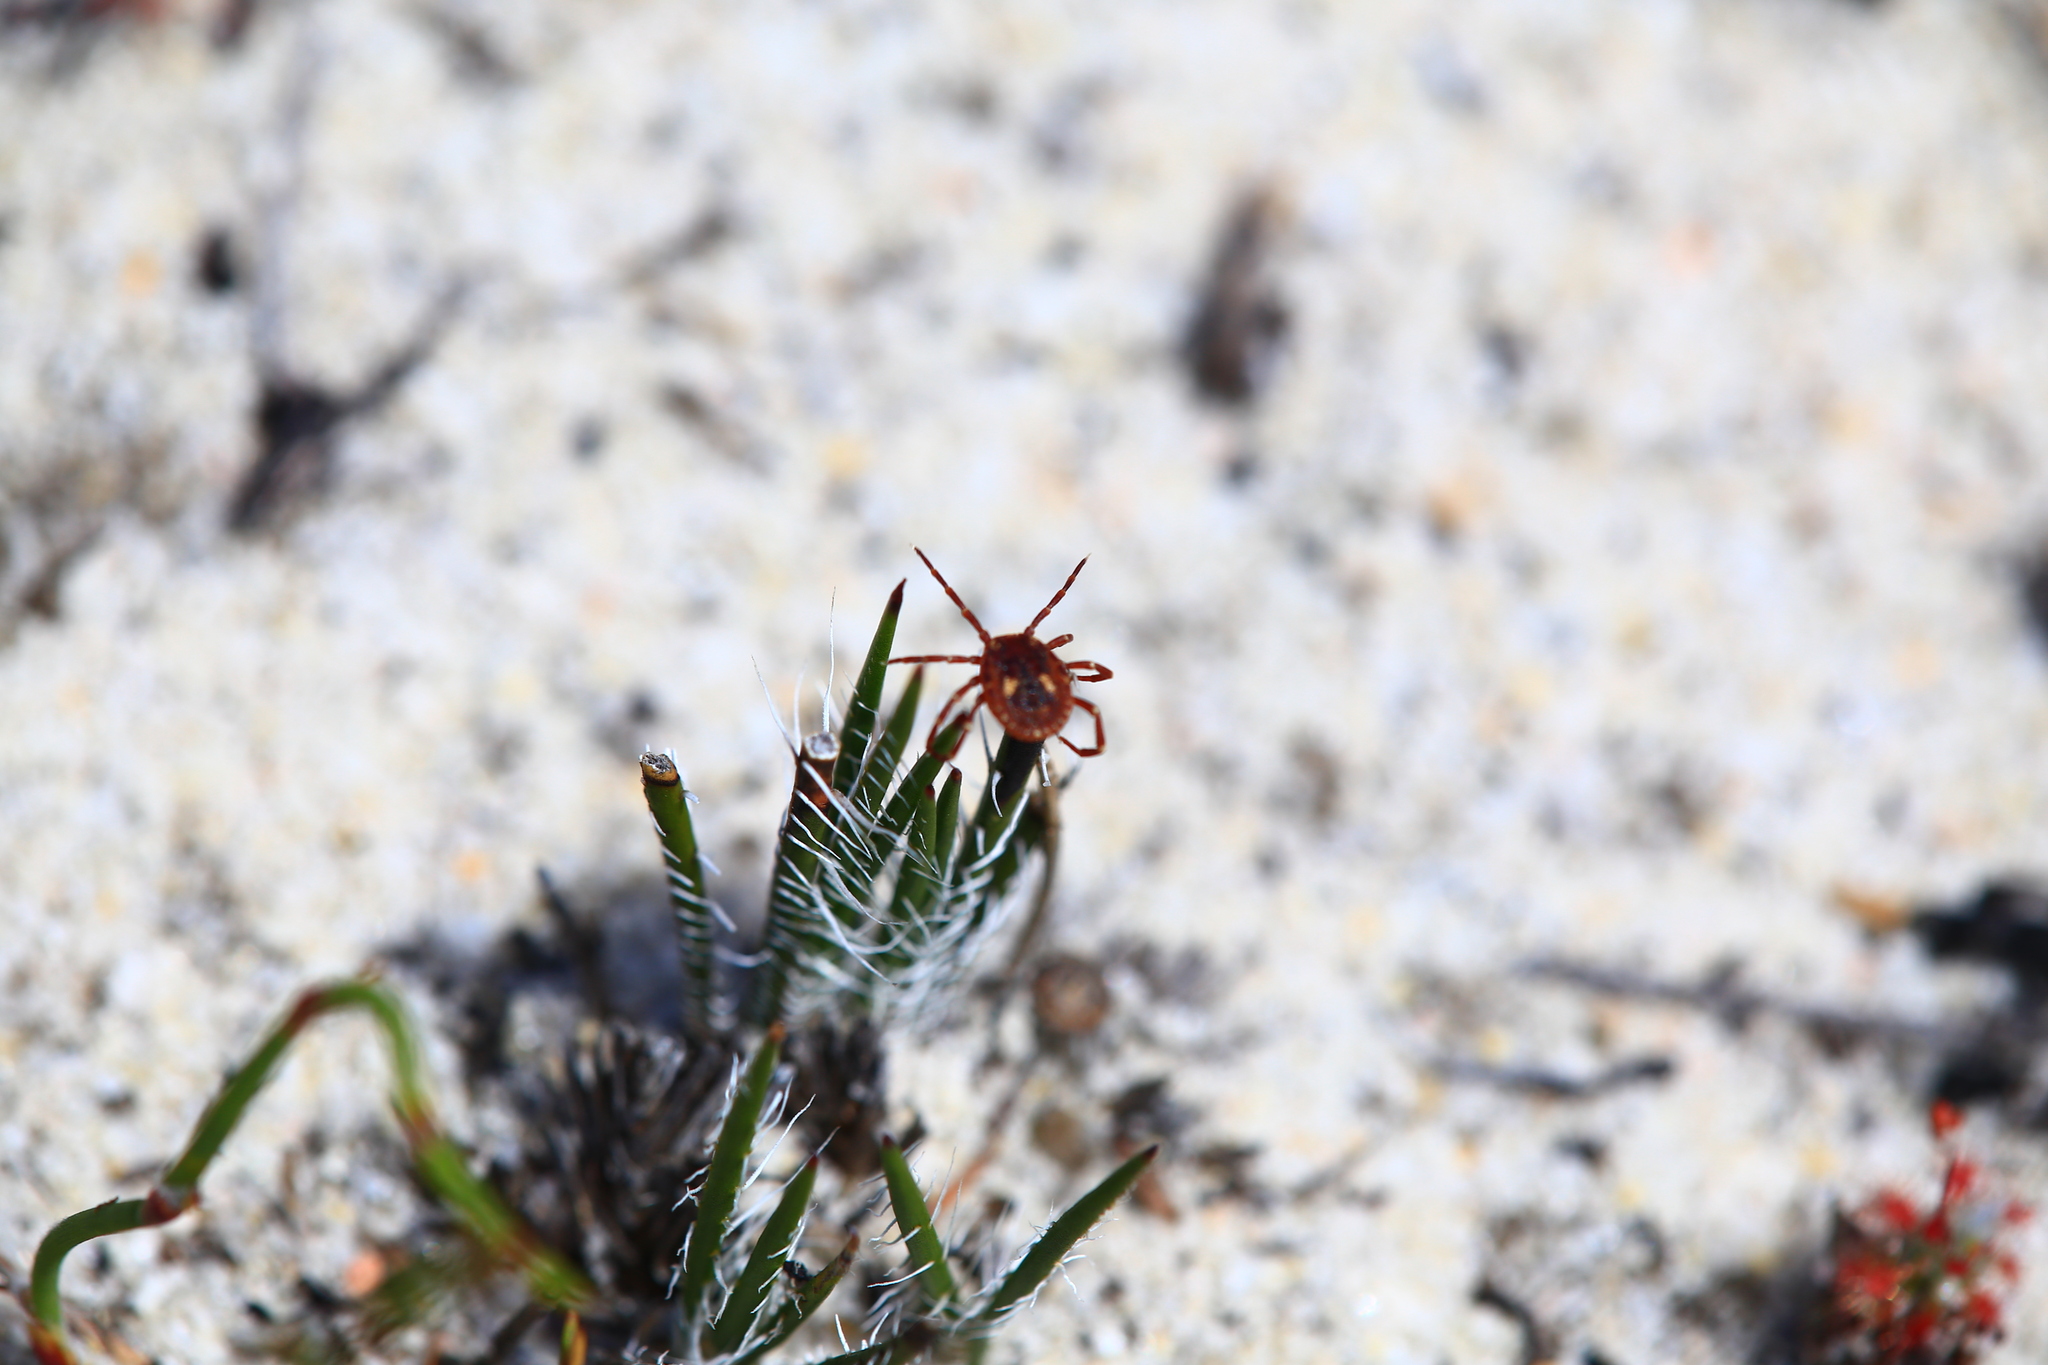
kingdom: Animalia
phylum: Arthropoda
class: Arachnida
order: Ixodida
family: Ixodidae
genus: Amblyomma
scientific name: Amblyomma triguttatum
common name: Kangaroo hard tick
